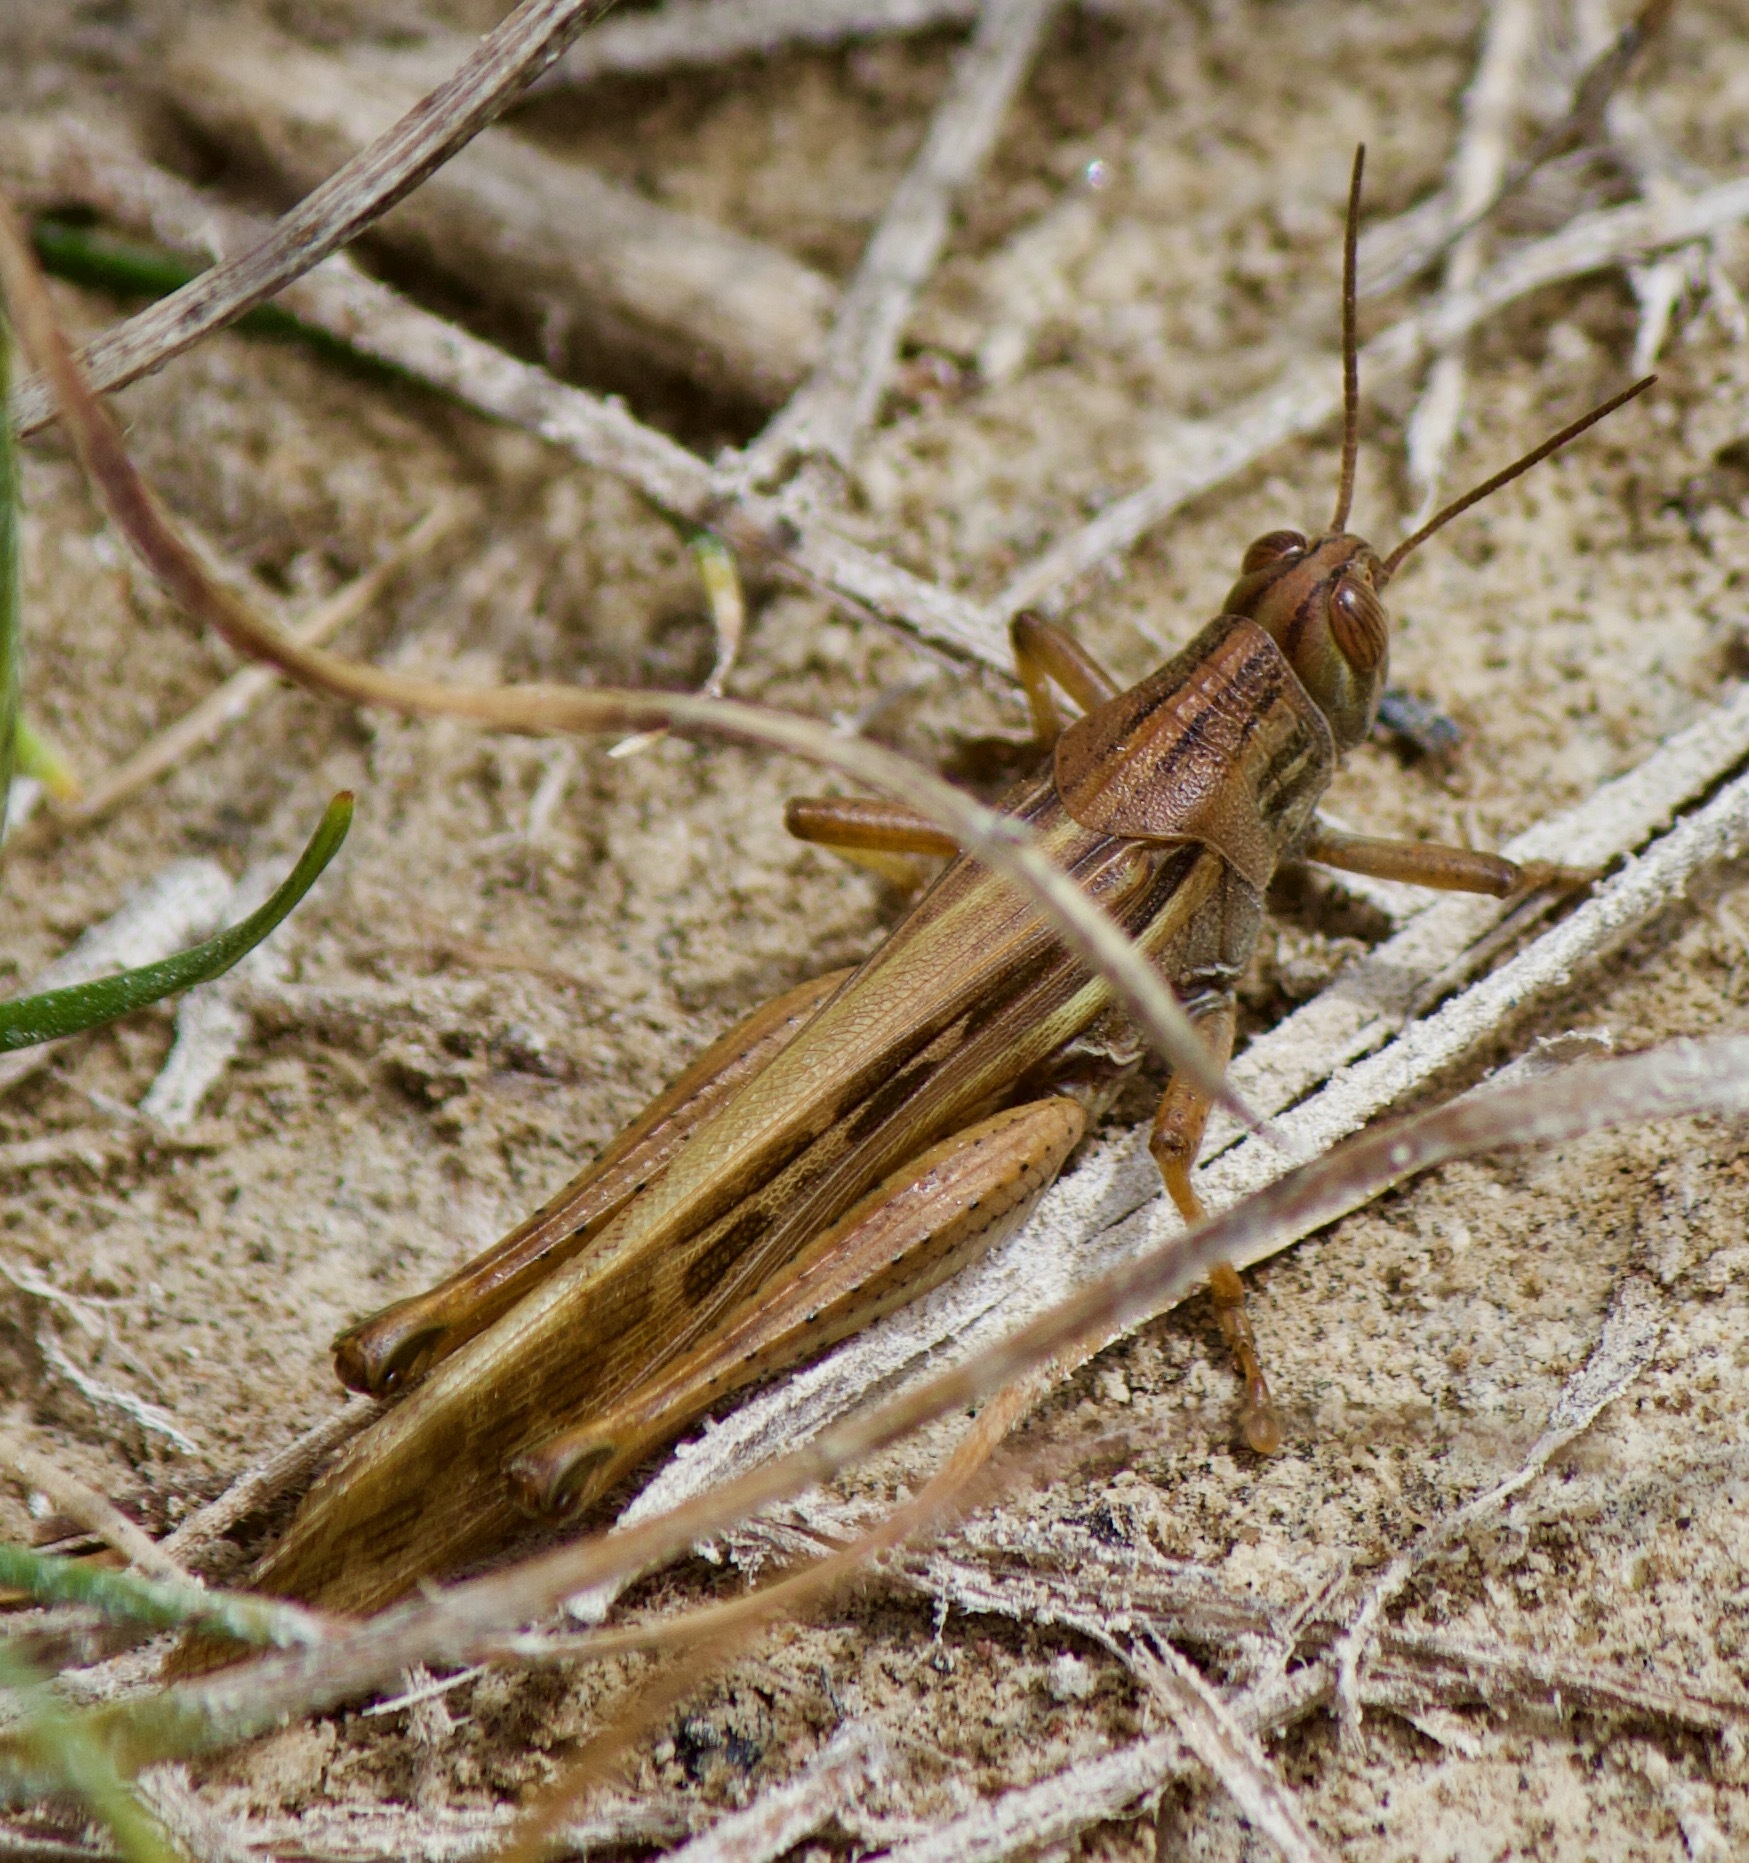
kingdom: Animalia
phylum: Arthropoda
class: Insecta
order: Orthoptera
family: Acrididae
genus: Schistocerca
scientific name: Schistocerca cancellata
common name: South american locust
